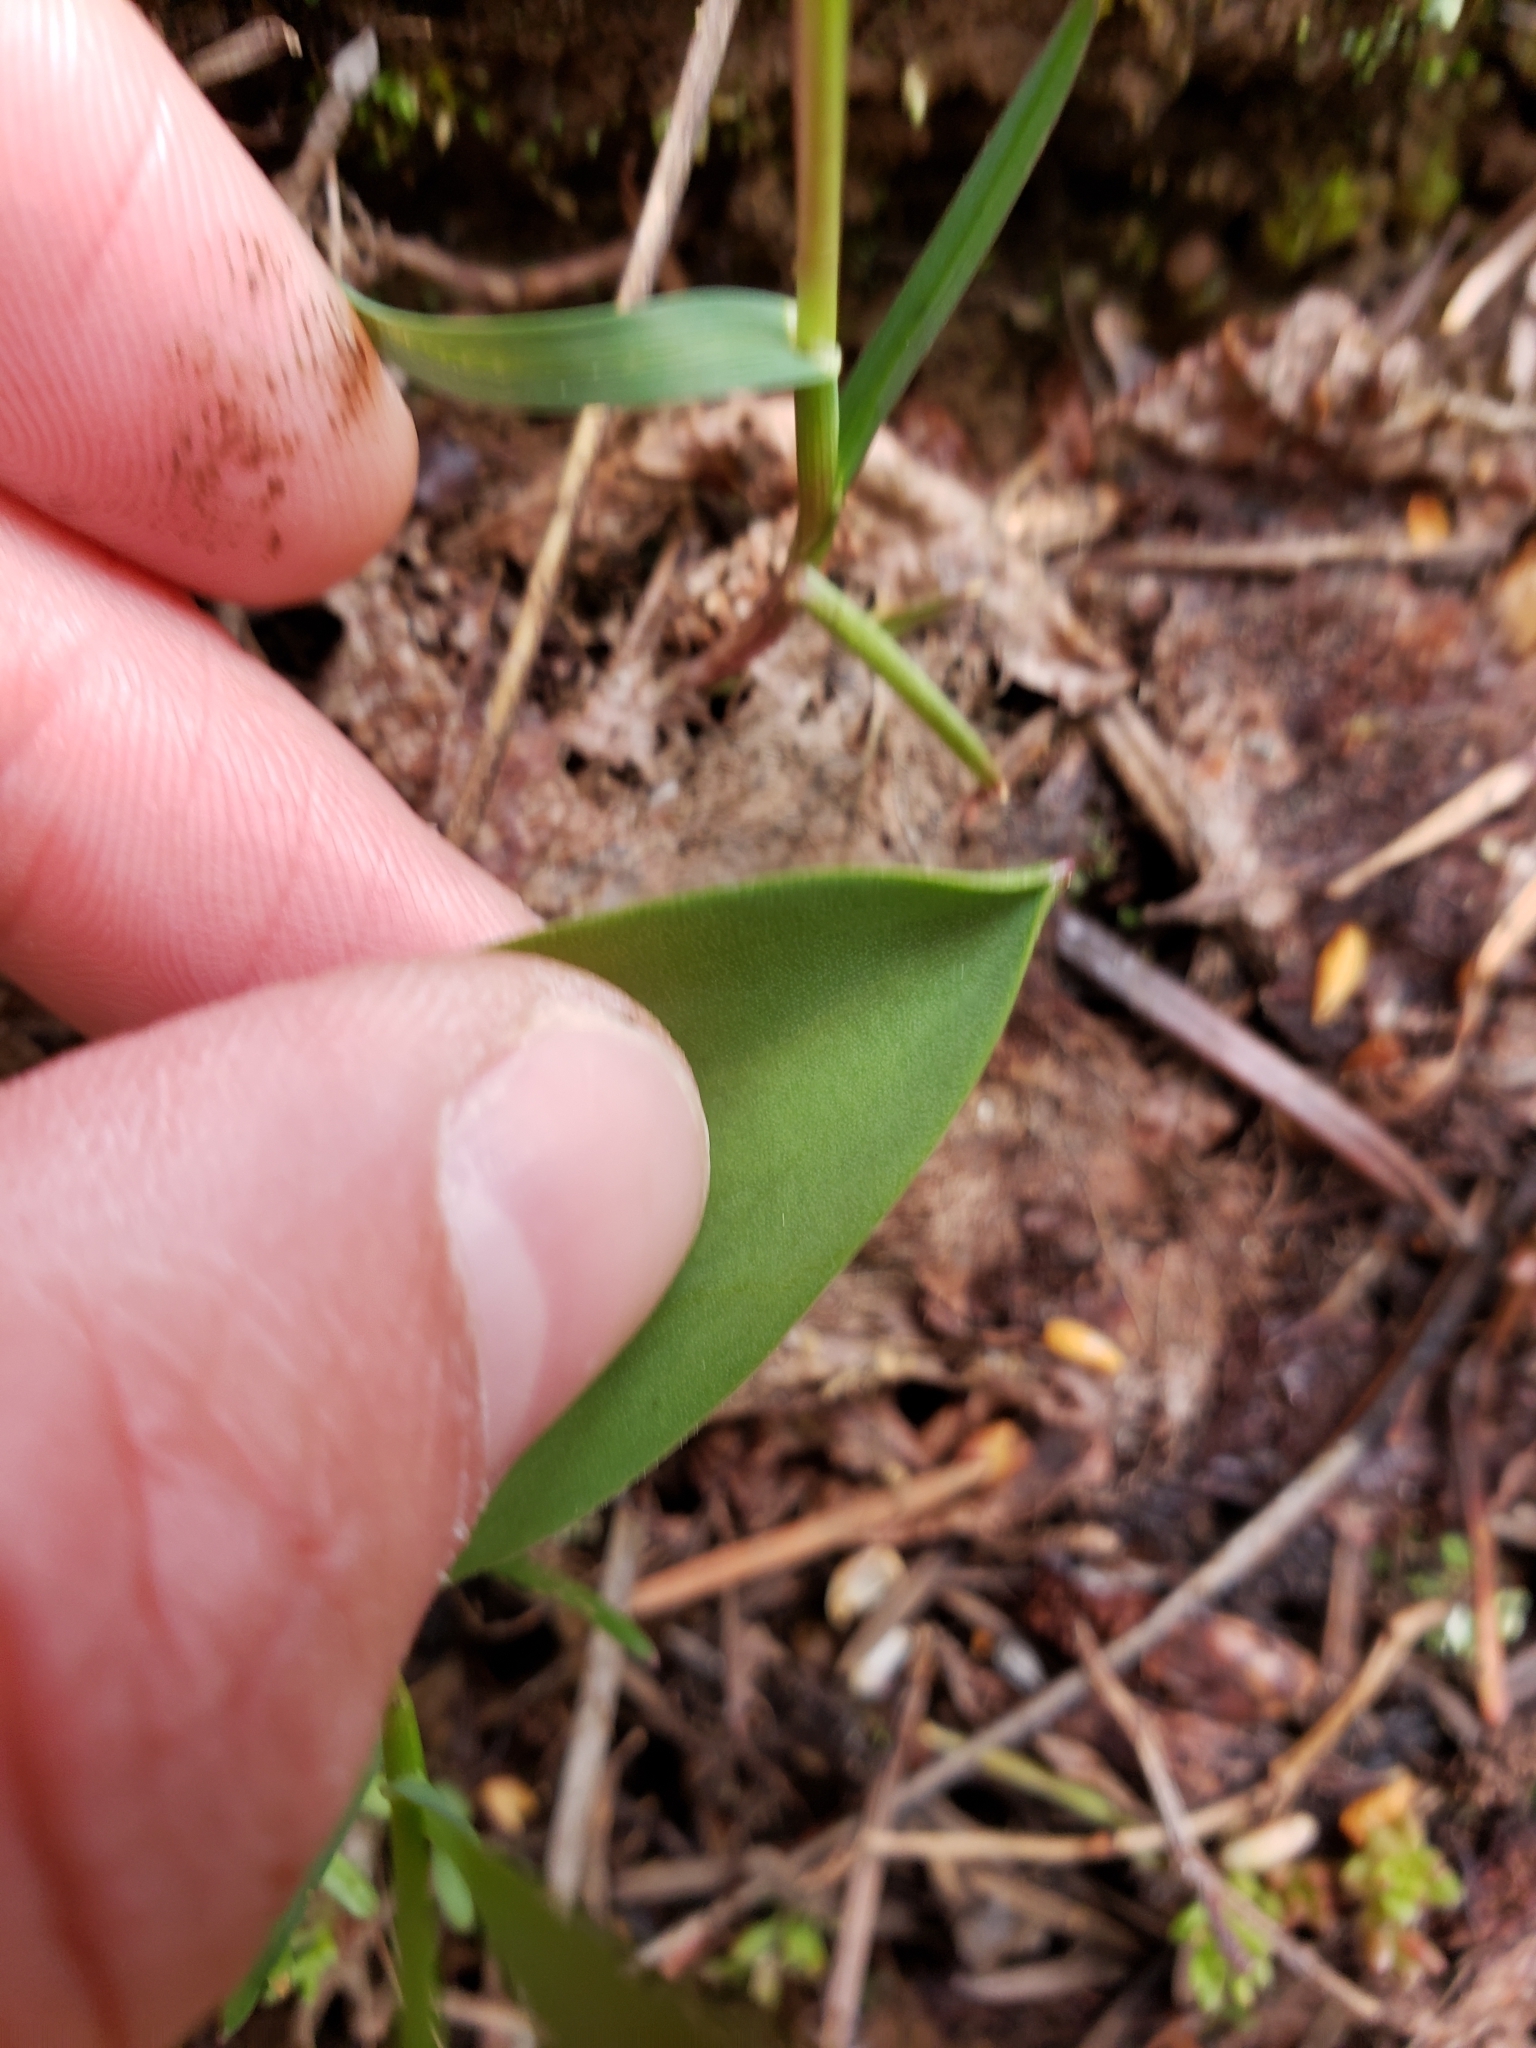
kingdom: Plantae
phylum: Tracheophyta
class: Liliopsida
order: Liliales
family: Liliaceae
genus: Erythronium
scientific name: Erythronium grandiflorum
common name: Avalanche-lily
